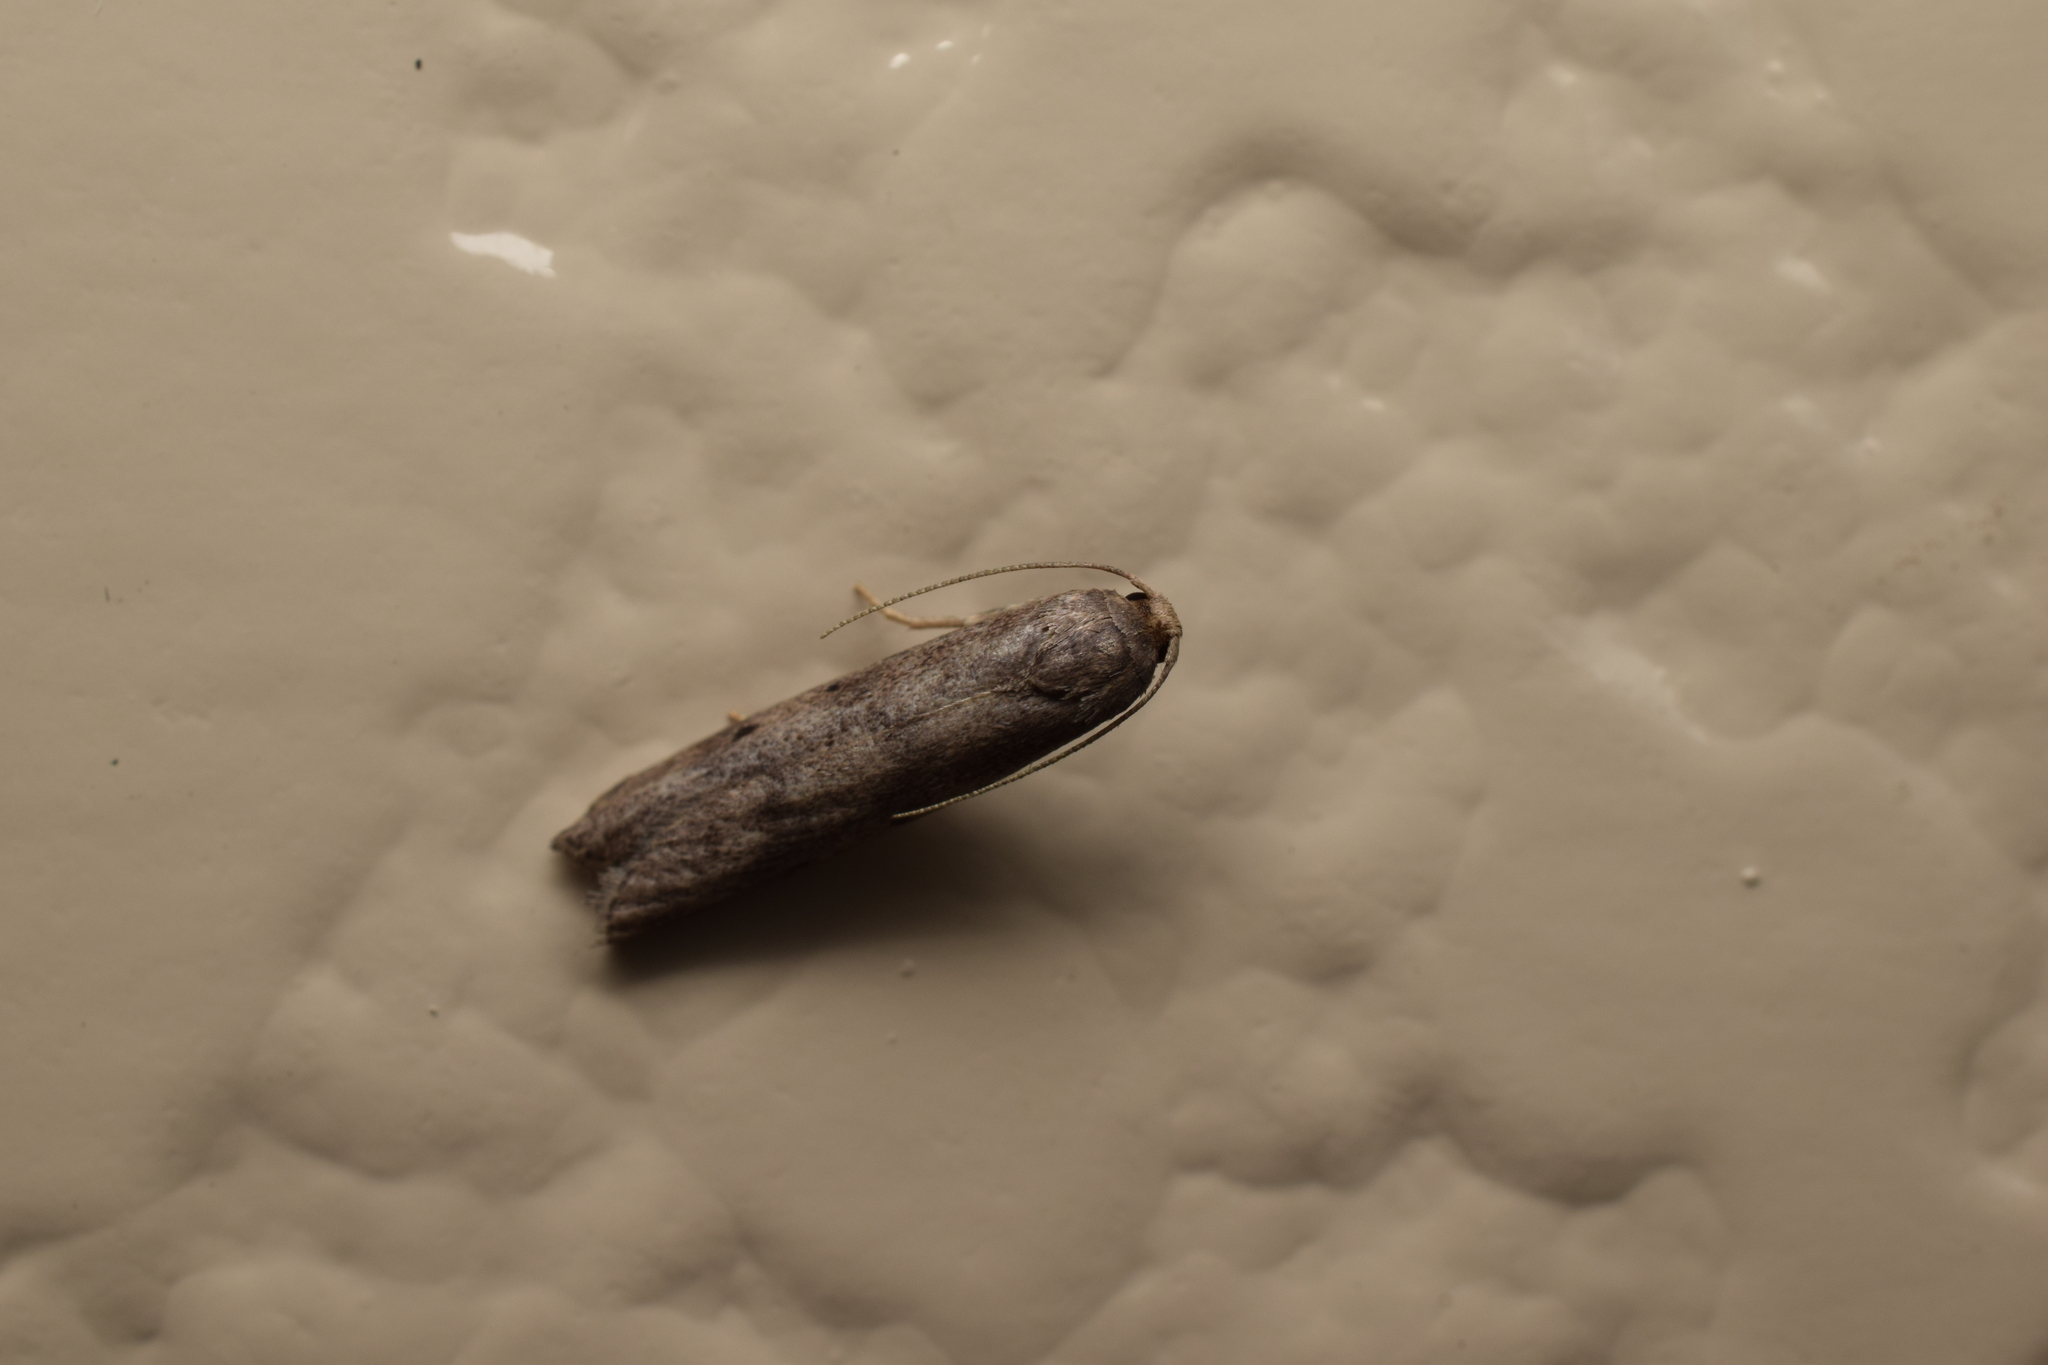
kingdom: Animalia
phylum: Arthropoda
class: Insecta
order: Lepidoptera
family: Pyralidae
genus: Aphomia
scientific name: Aphomia zelleri
